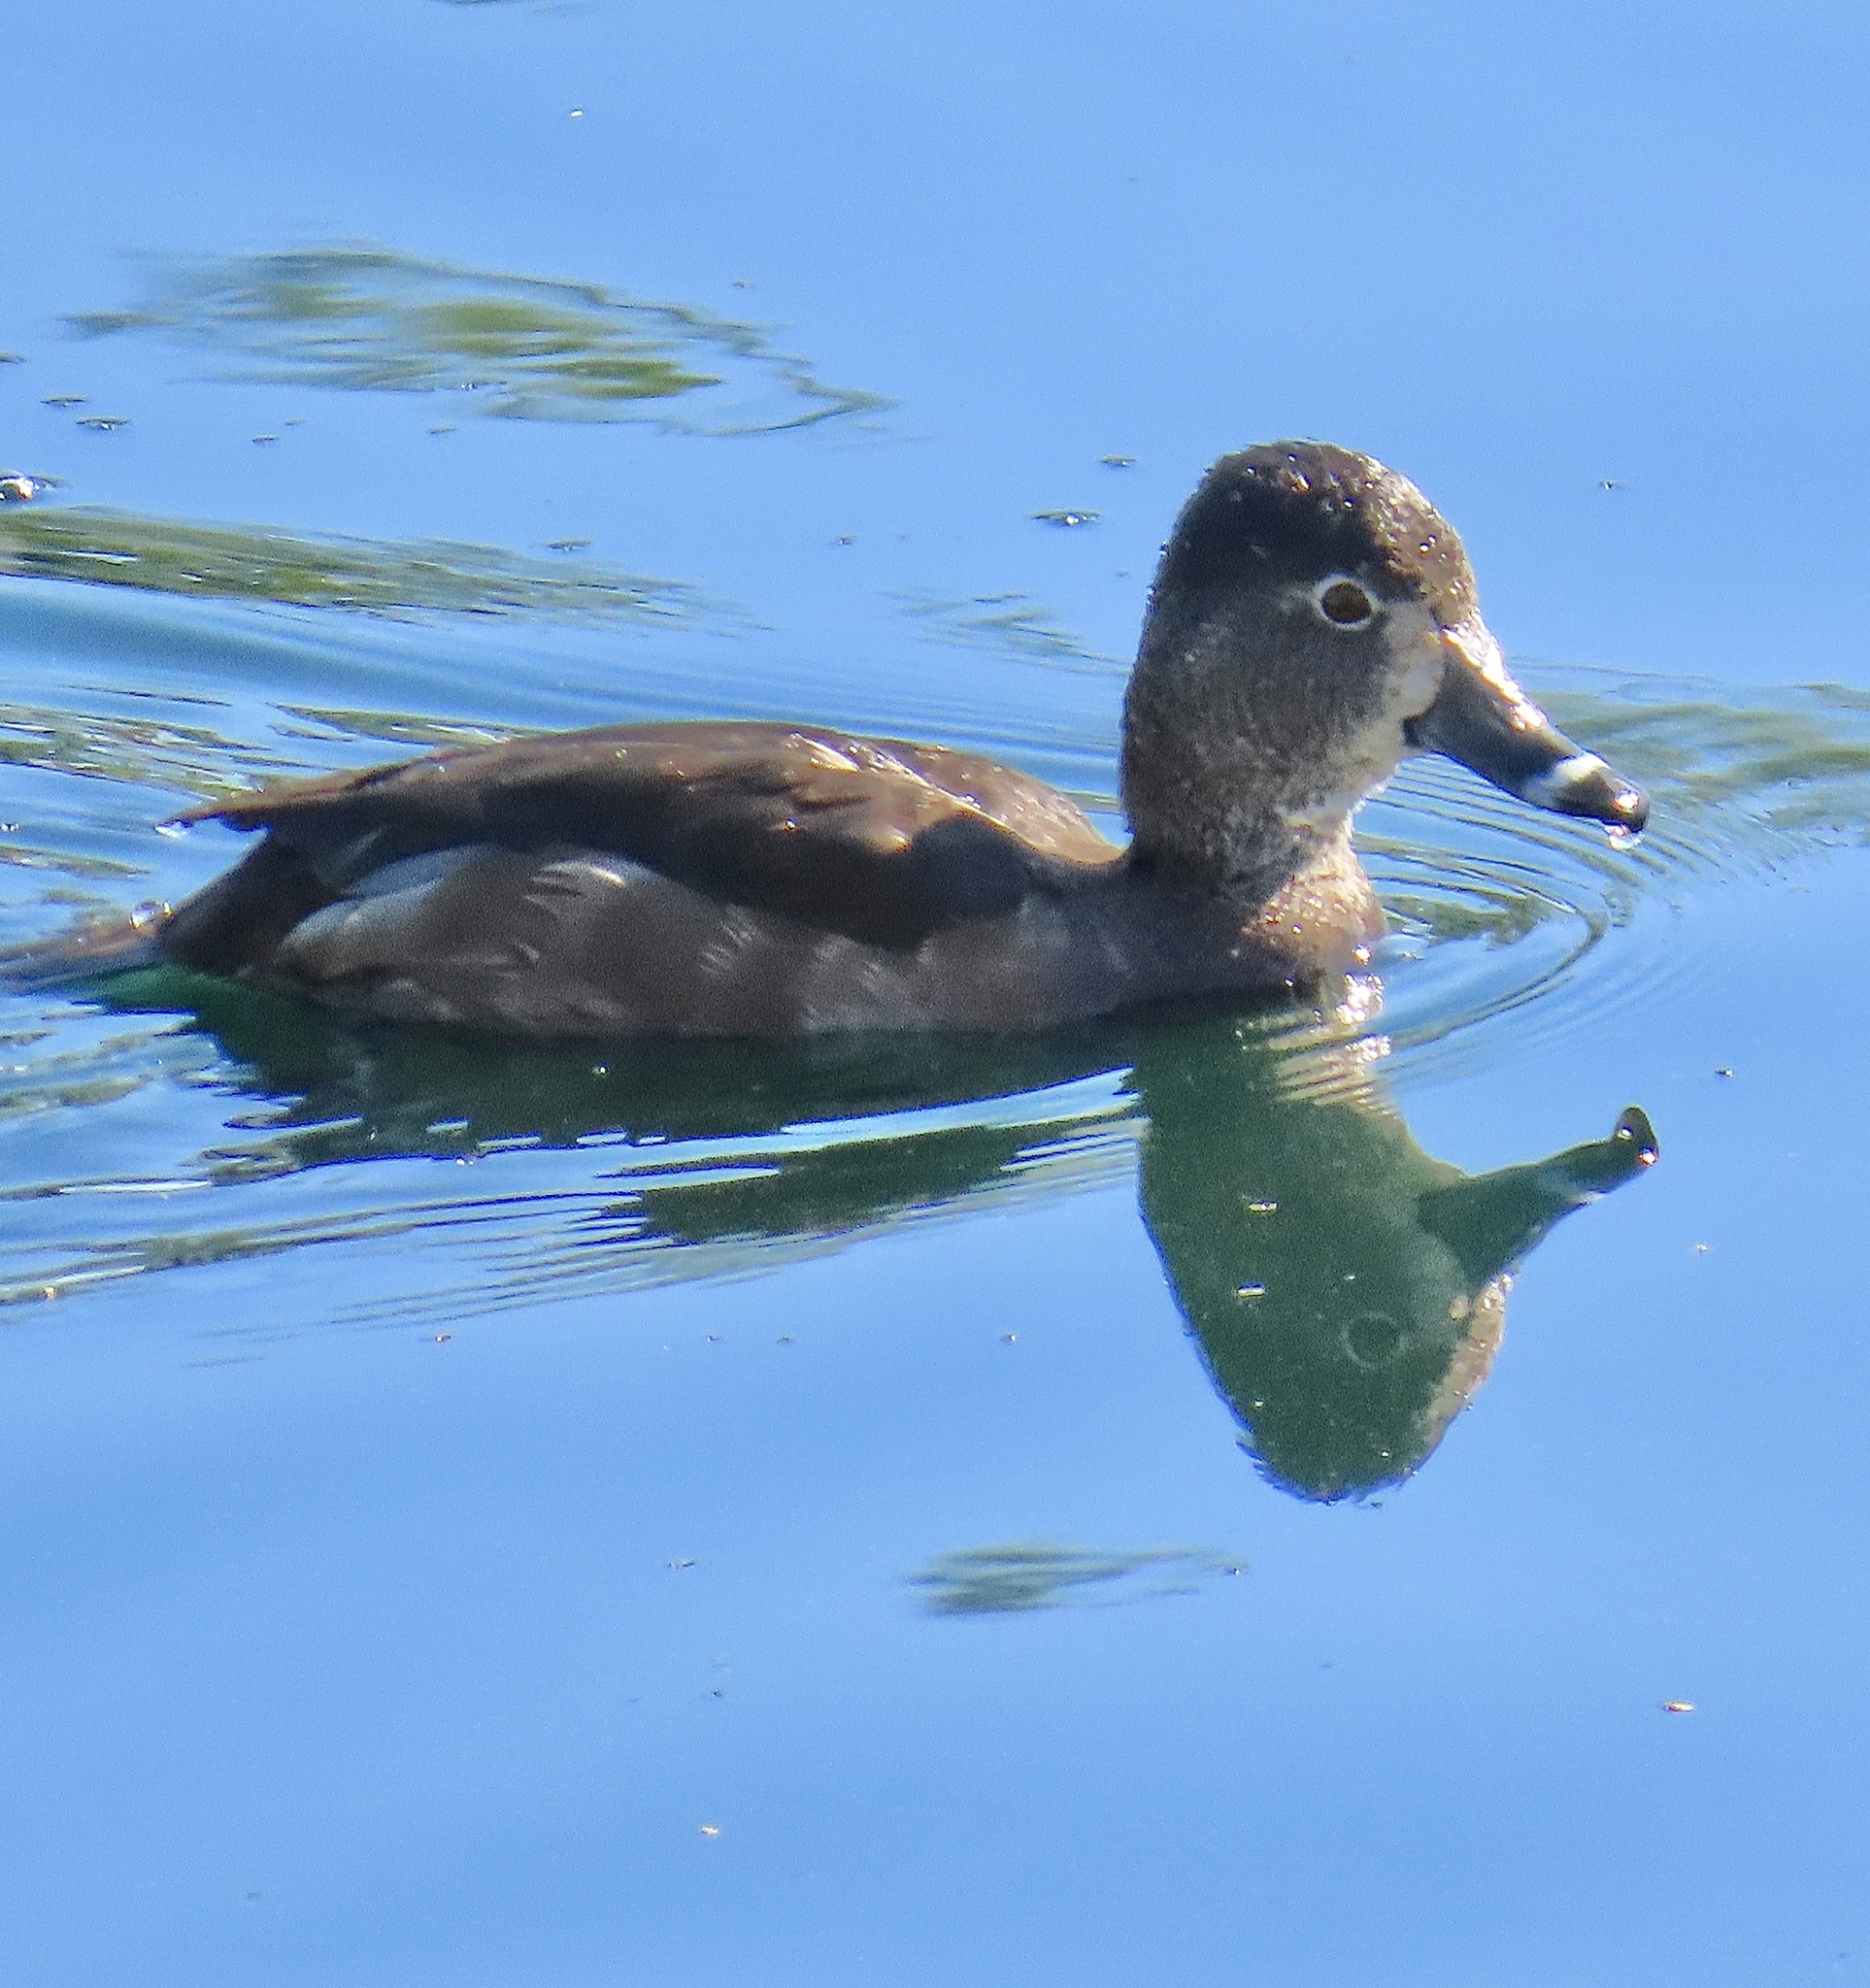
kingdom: Animalia
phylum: Chordata
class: Aves
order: Anseriformes
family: Anatidae
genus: Aythya
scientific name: Aythya collaris
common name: Ring-necked duck
